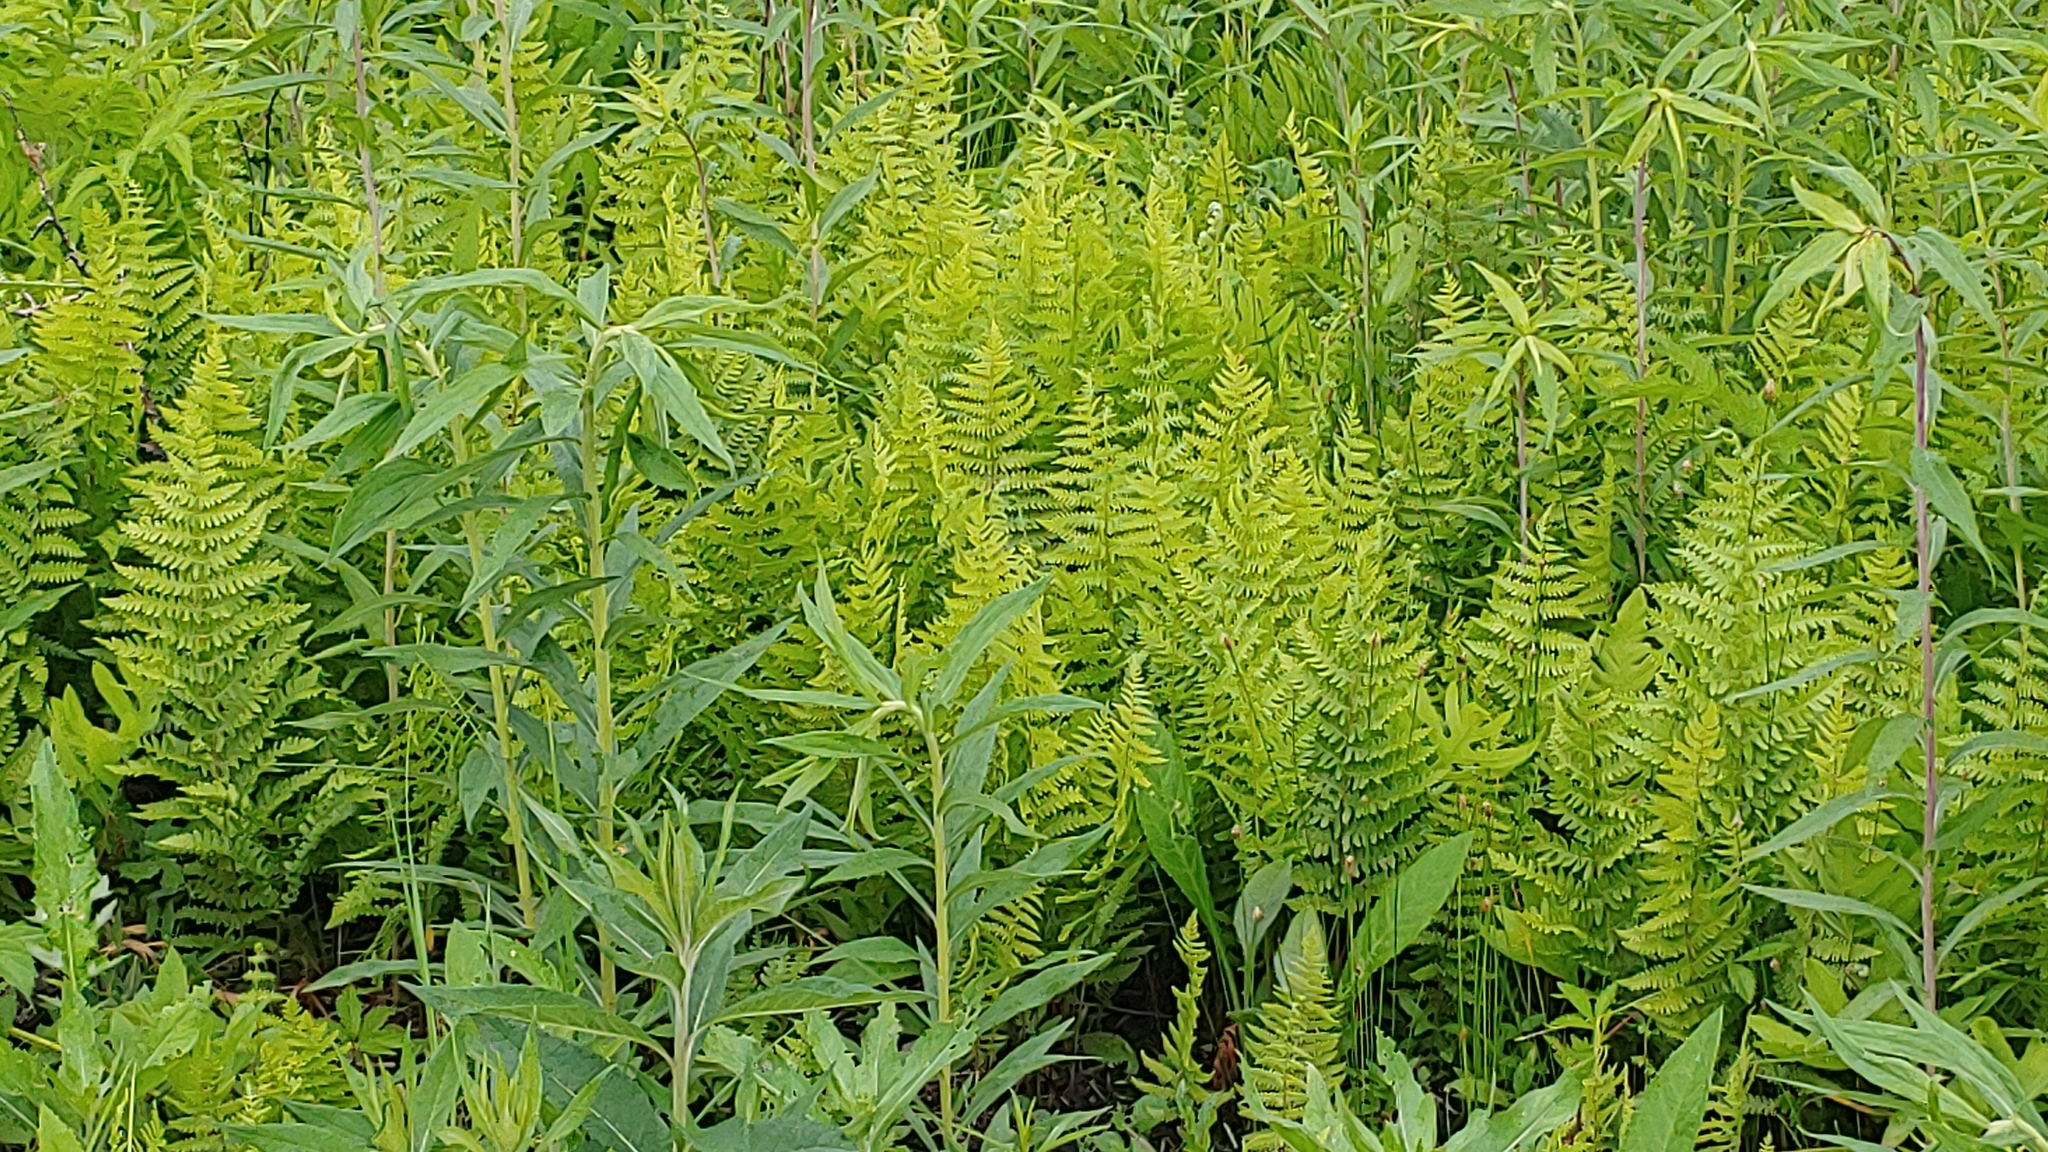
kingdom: Plantae
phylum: Tracheophyta
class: Polypodiopsida
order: Polypodiales
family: Thelypteridaceae
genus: Thelypteris
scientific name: Thelypteris palustris
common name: Marsh fern
